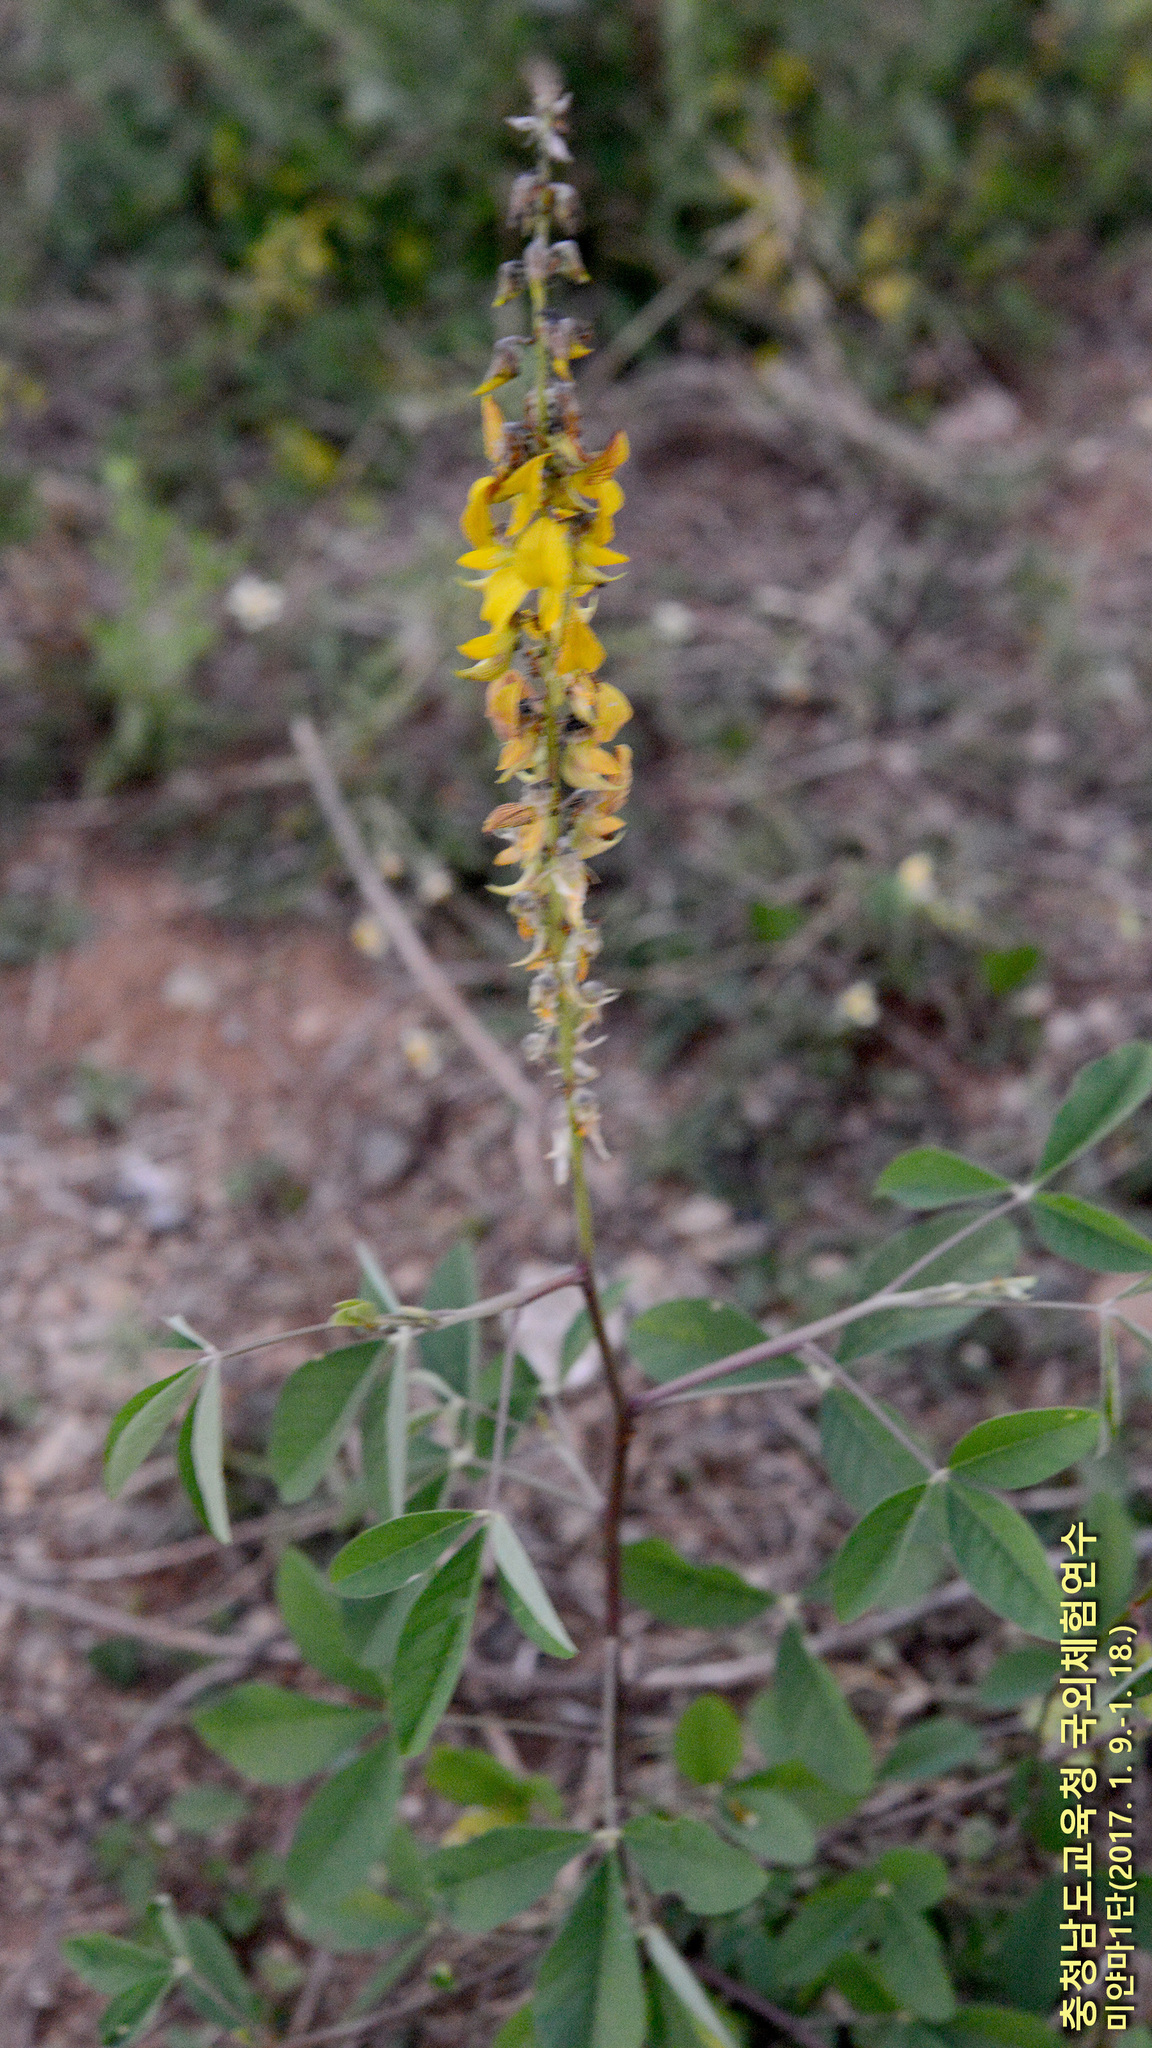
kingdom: Plantae
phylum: Tracheophyta
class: Magnoliopsida
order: Fabales
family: Fabaceae
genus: Crotalaria
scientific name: Crotalaria pallida
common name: Smooth rattlebox
